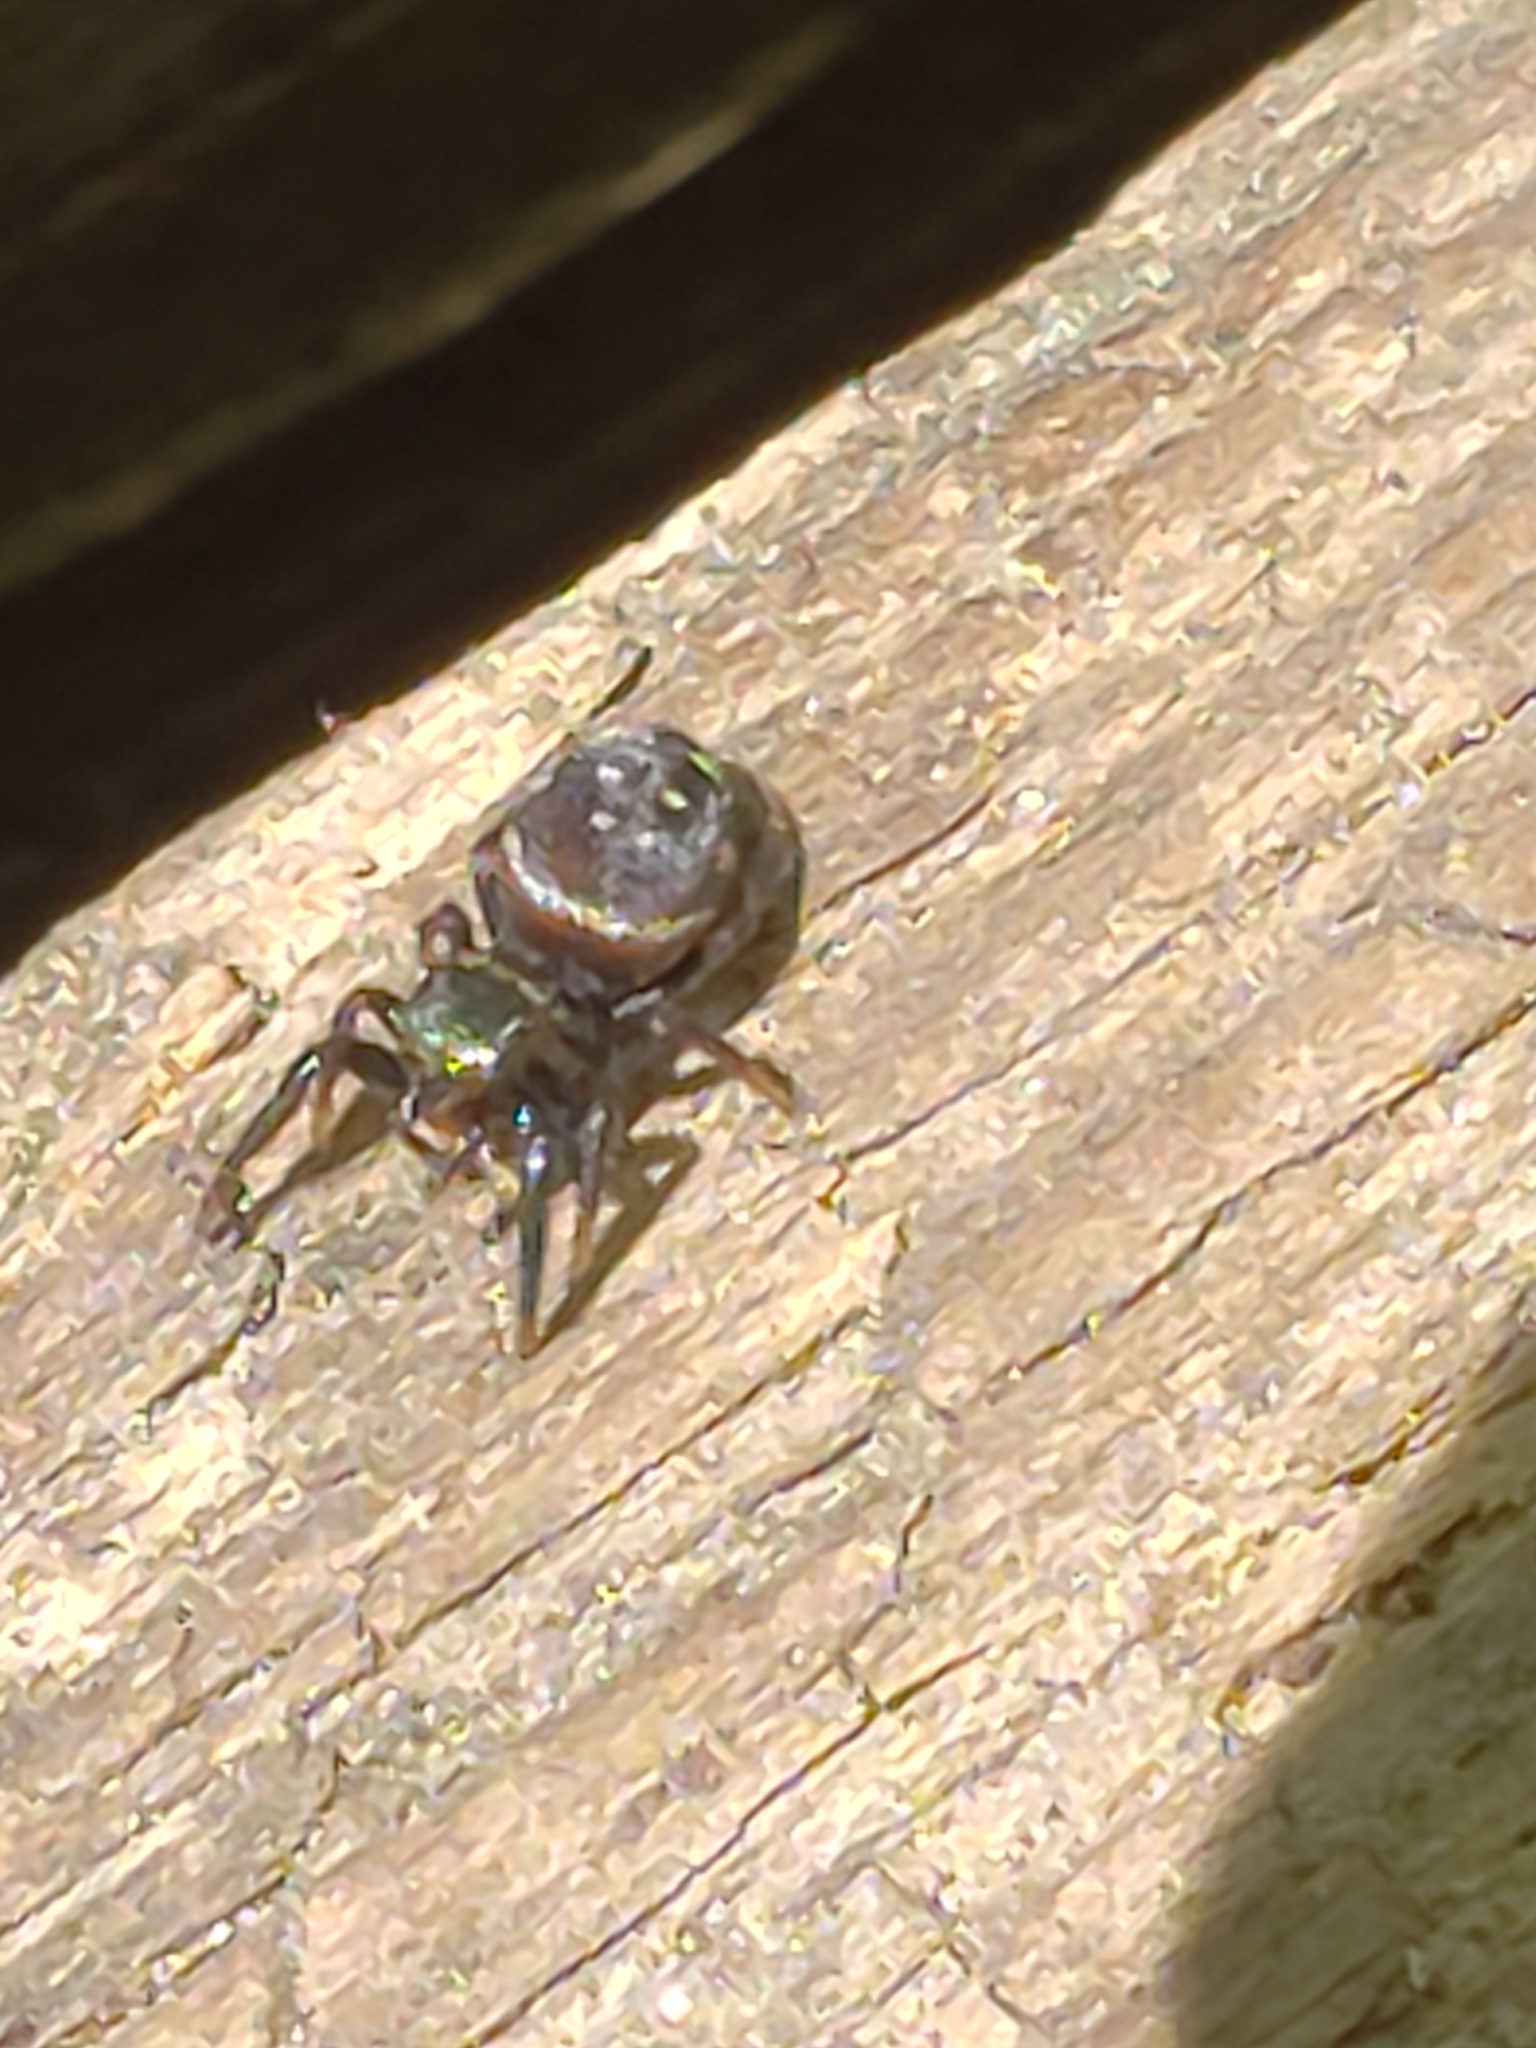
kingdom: Animalia
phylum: Arthropoda
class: Arachnida
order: Araneae
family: Salticidae
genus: Paraphidippus
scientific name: Paraphidippus aurantius
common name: Jumping spiders
